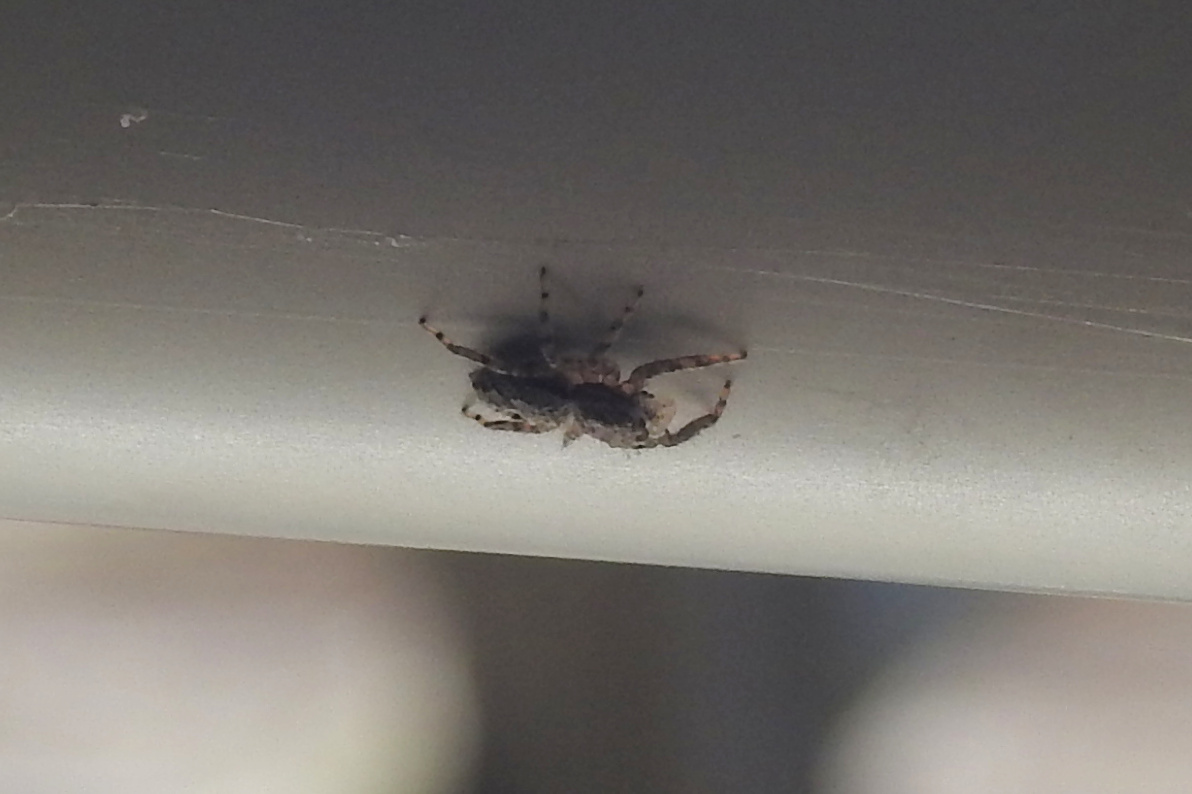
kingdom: Animalia
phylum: Arthropoda
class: Arachnida
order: Araneae
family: Salticidae
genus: Platycryptus
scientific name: Platycryptus undatus
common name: Tan jumping spider
